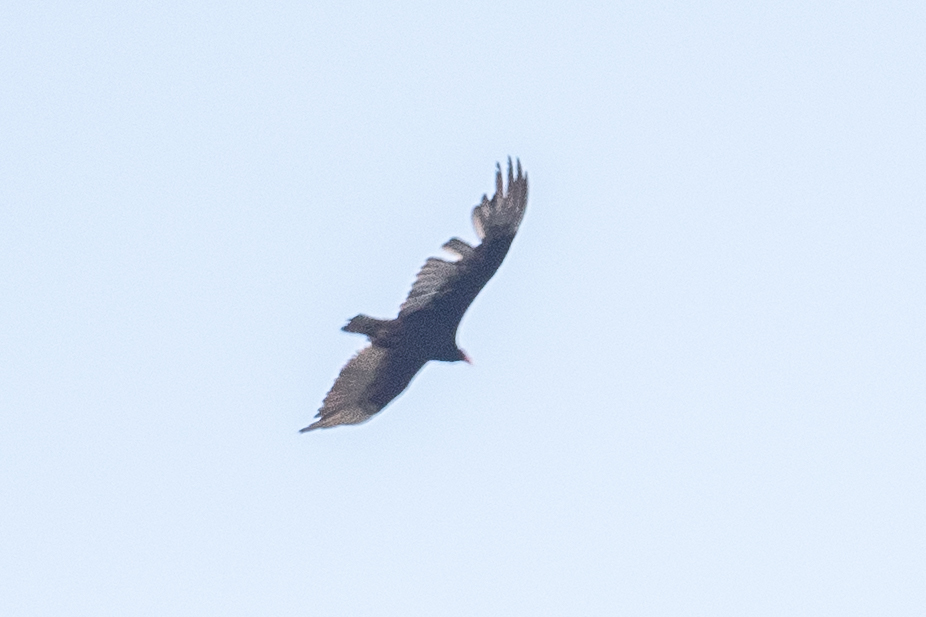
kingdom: Animalia
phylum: Chordata
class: Aves
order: Accipitriformes
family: Cathartidae
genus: Cathartes
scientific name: Cathartes aura
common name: Turkey vulture
